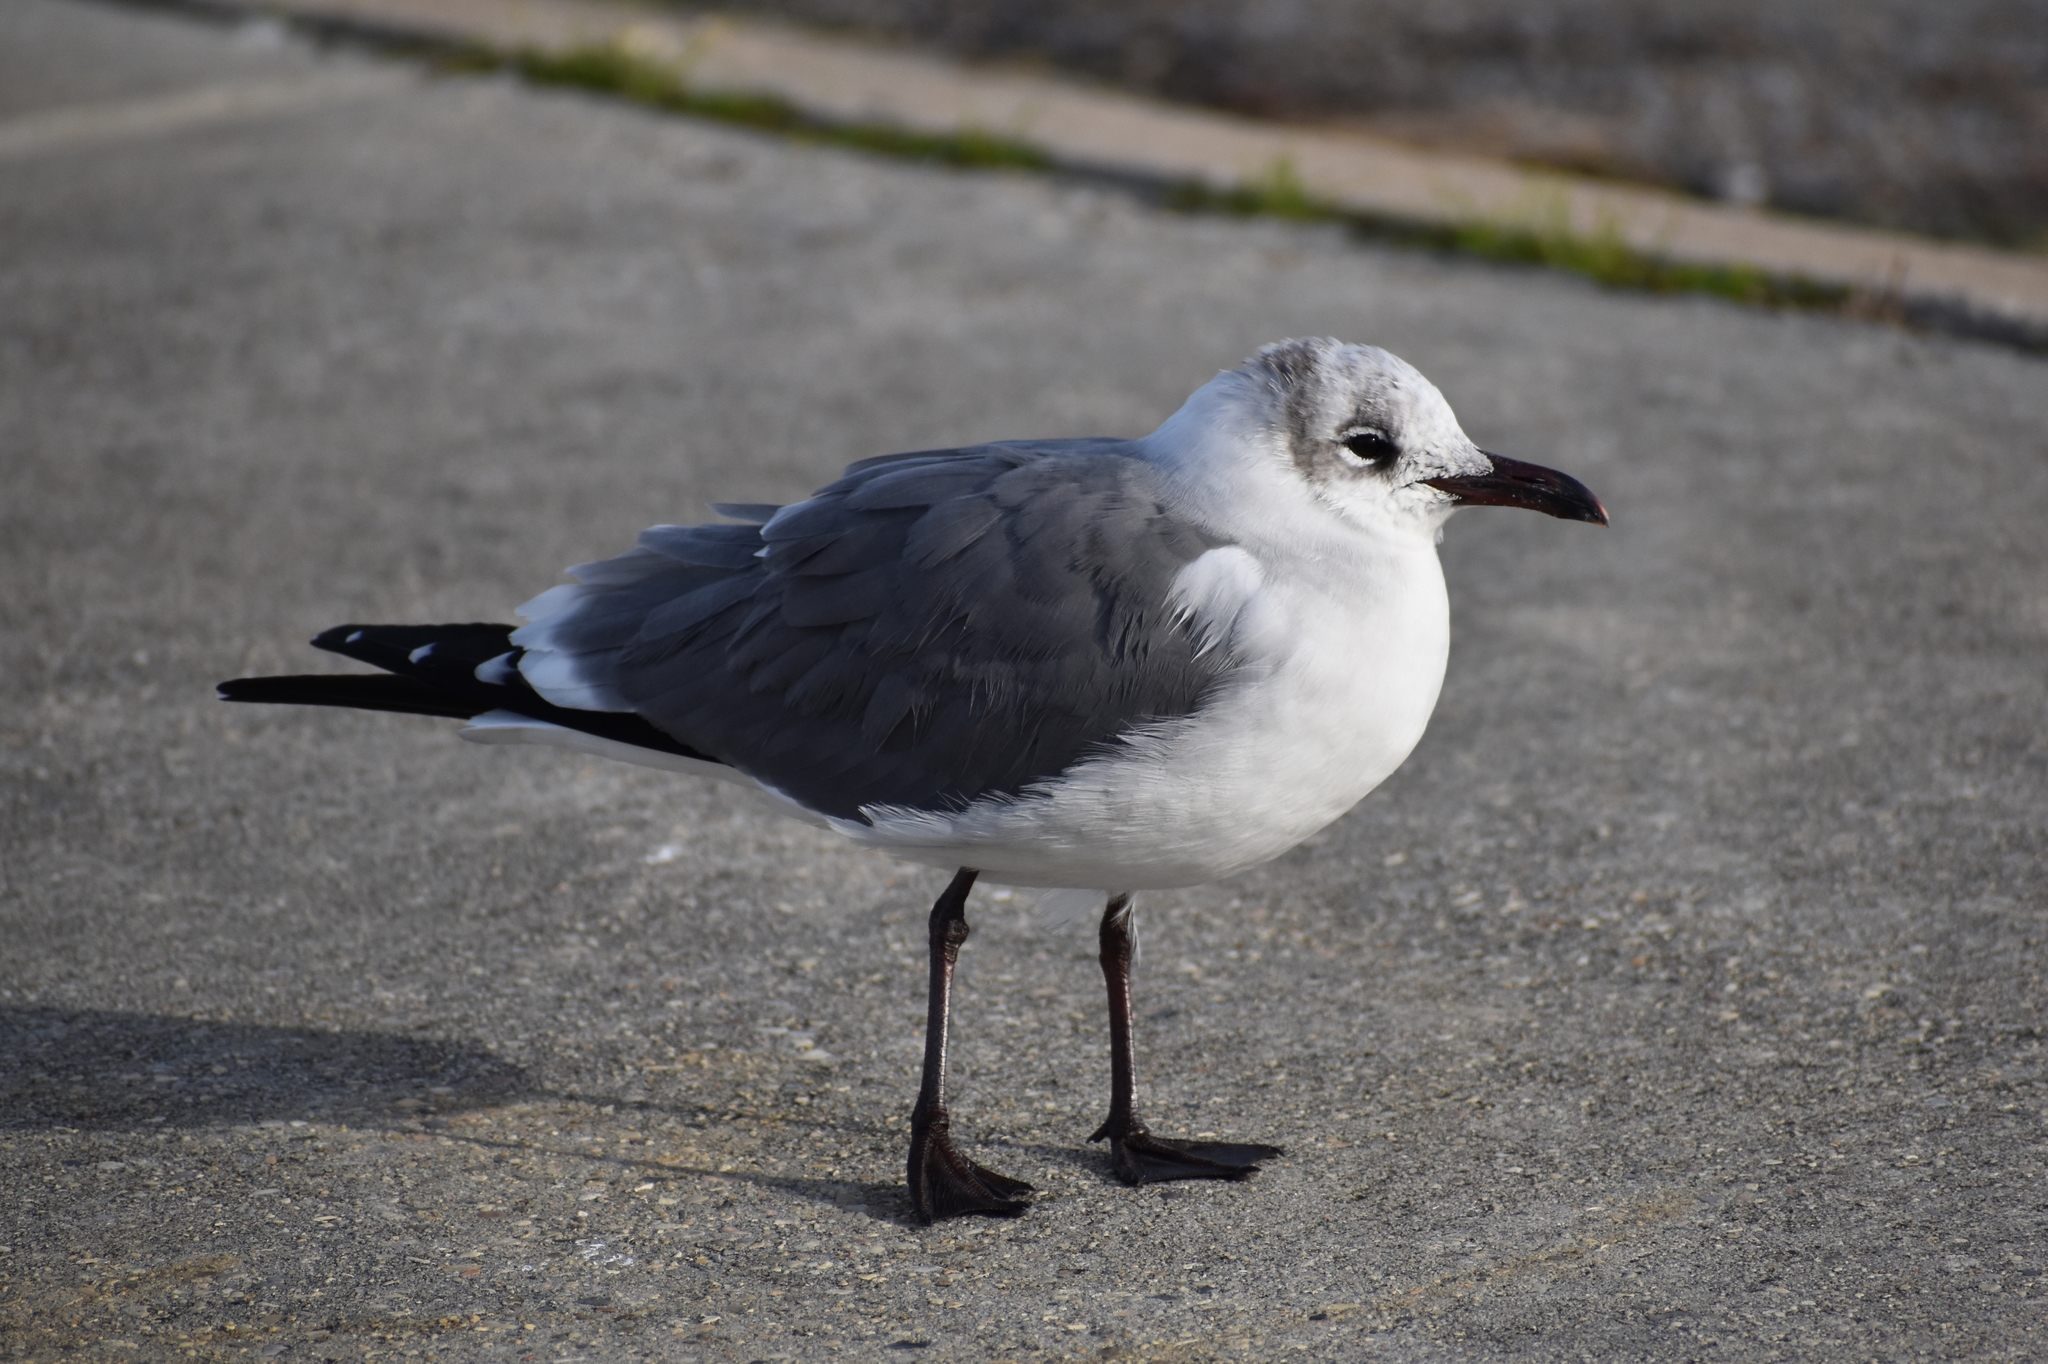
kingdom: Animalia
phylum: Chordata
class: Aves
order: Charadriiformes
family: Laridae
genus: Leucophaeus
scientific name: Leucophaeus atricilla
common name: Laughing gull
